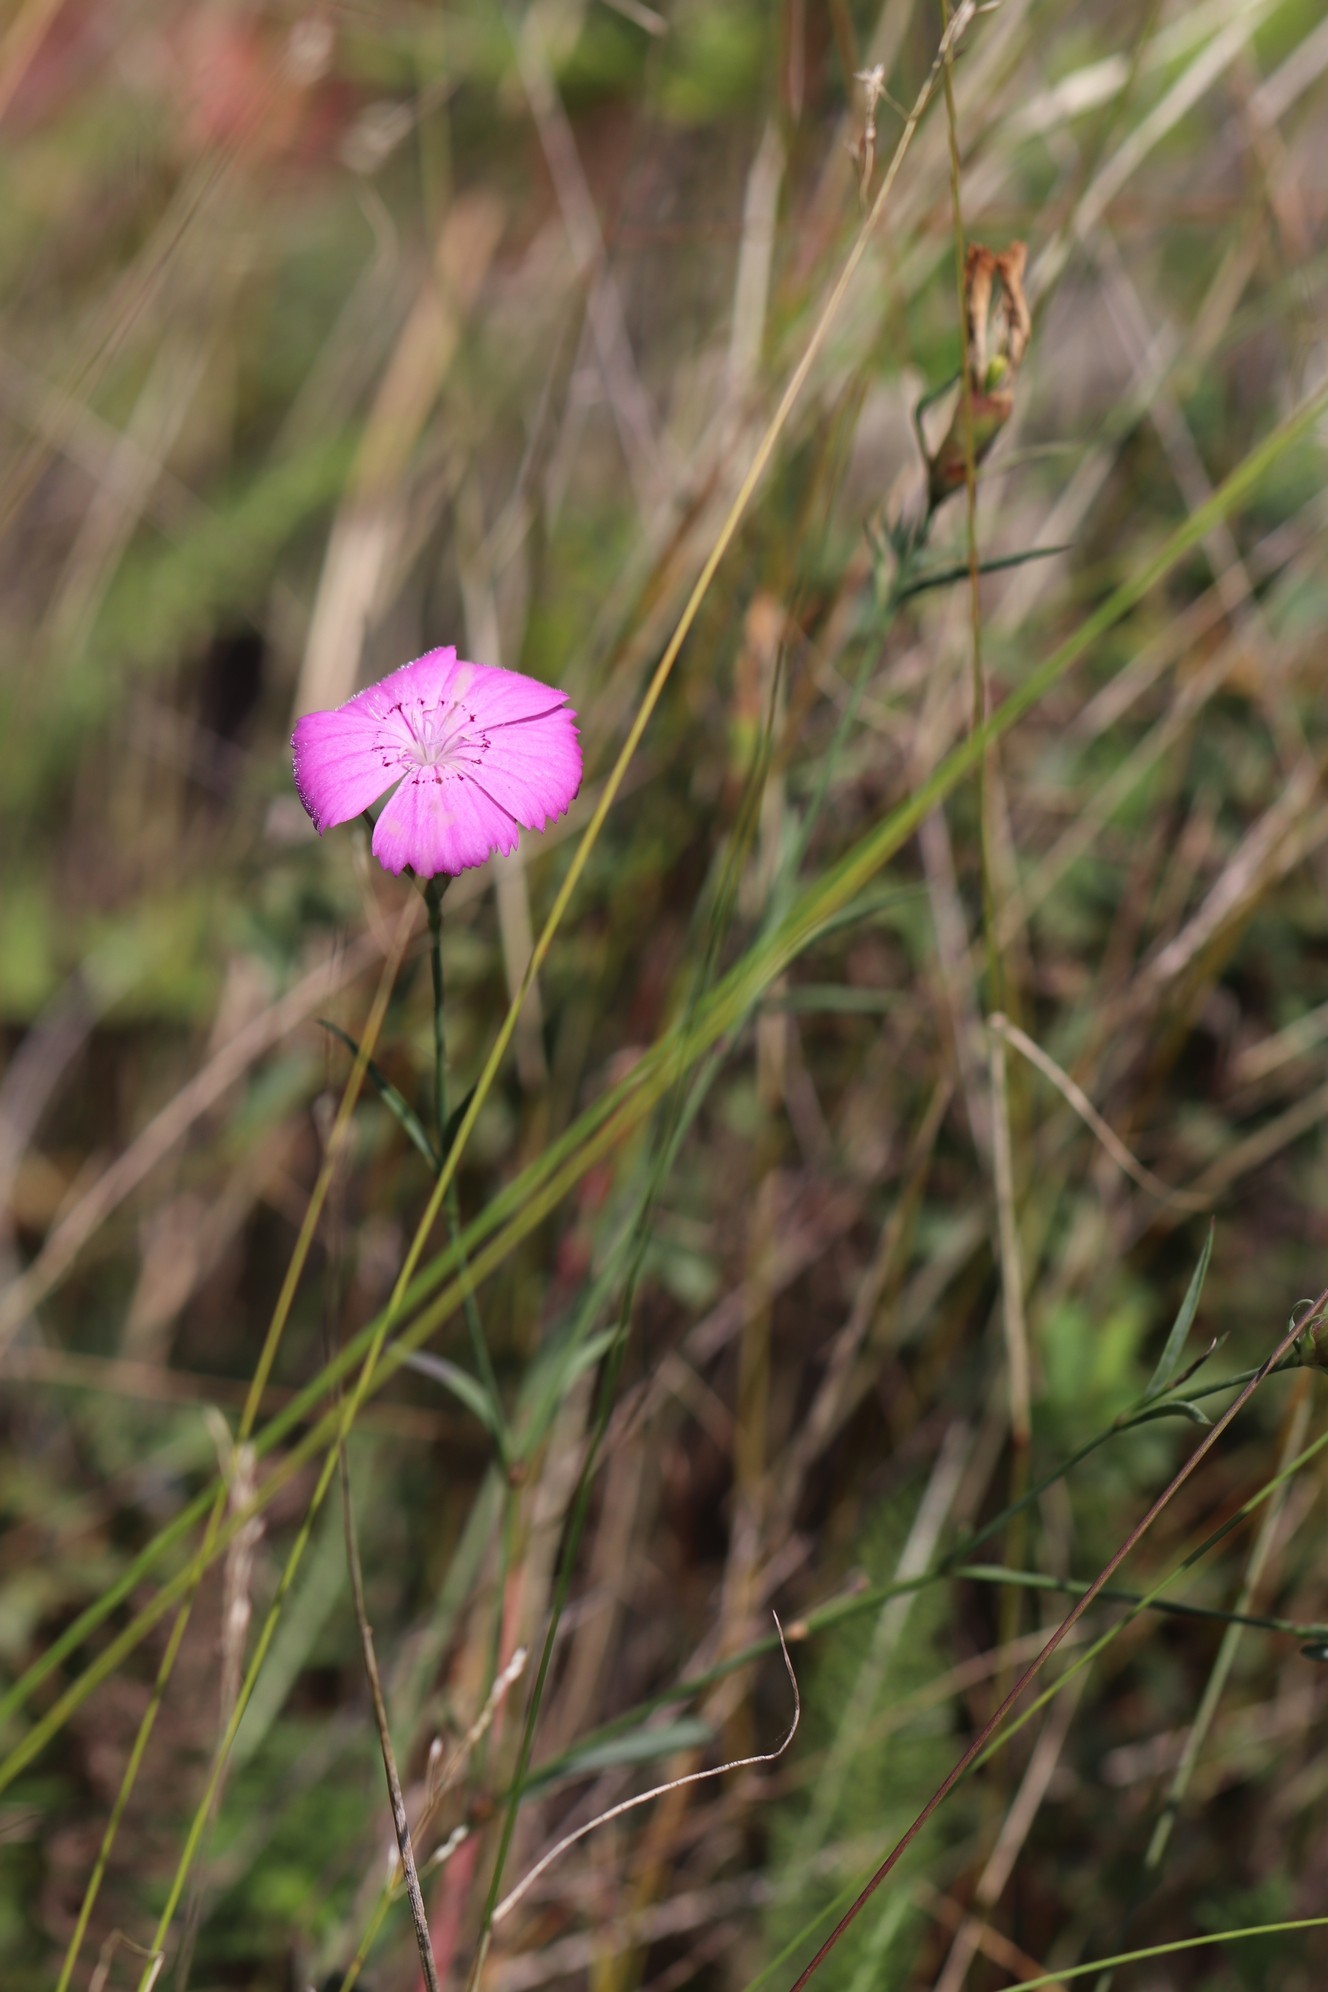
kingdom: Plantae
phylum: Tracheophyta
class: Magnoliopsida
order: Caryophyllales
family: Caryophyllaceae
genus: Dianthus
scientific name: Dianthus chinensis
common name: Rainbow pink
